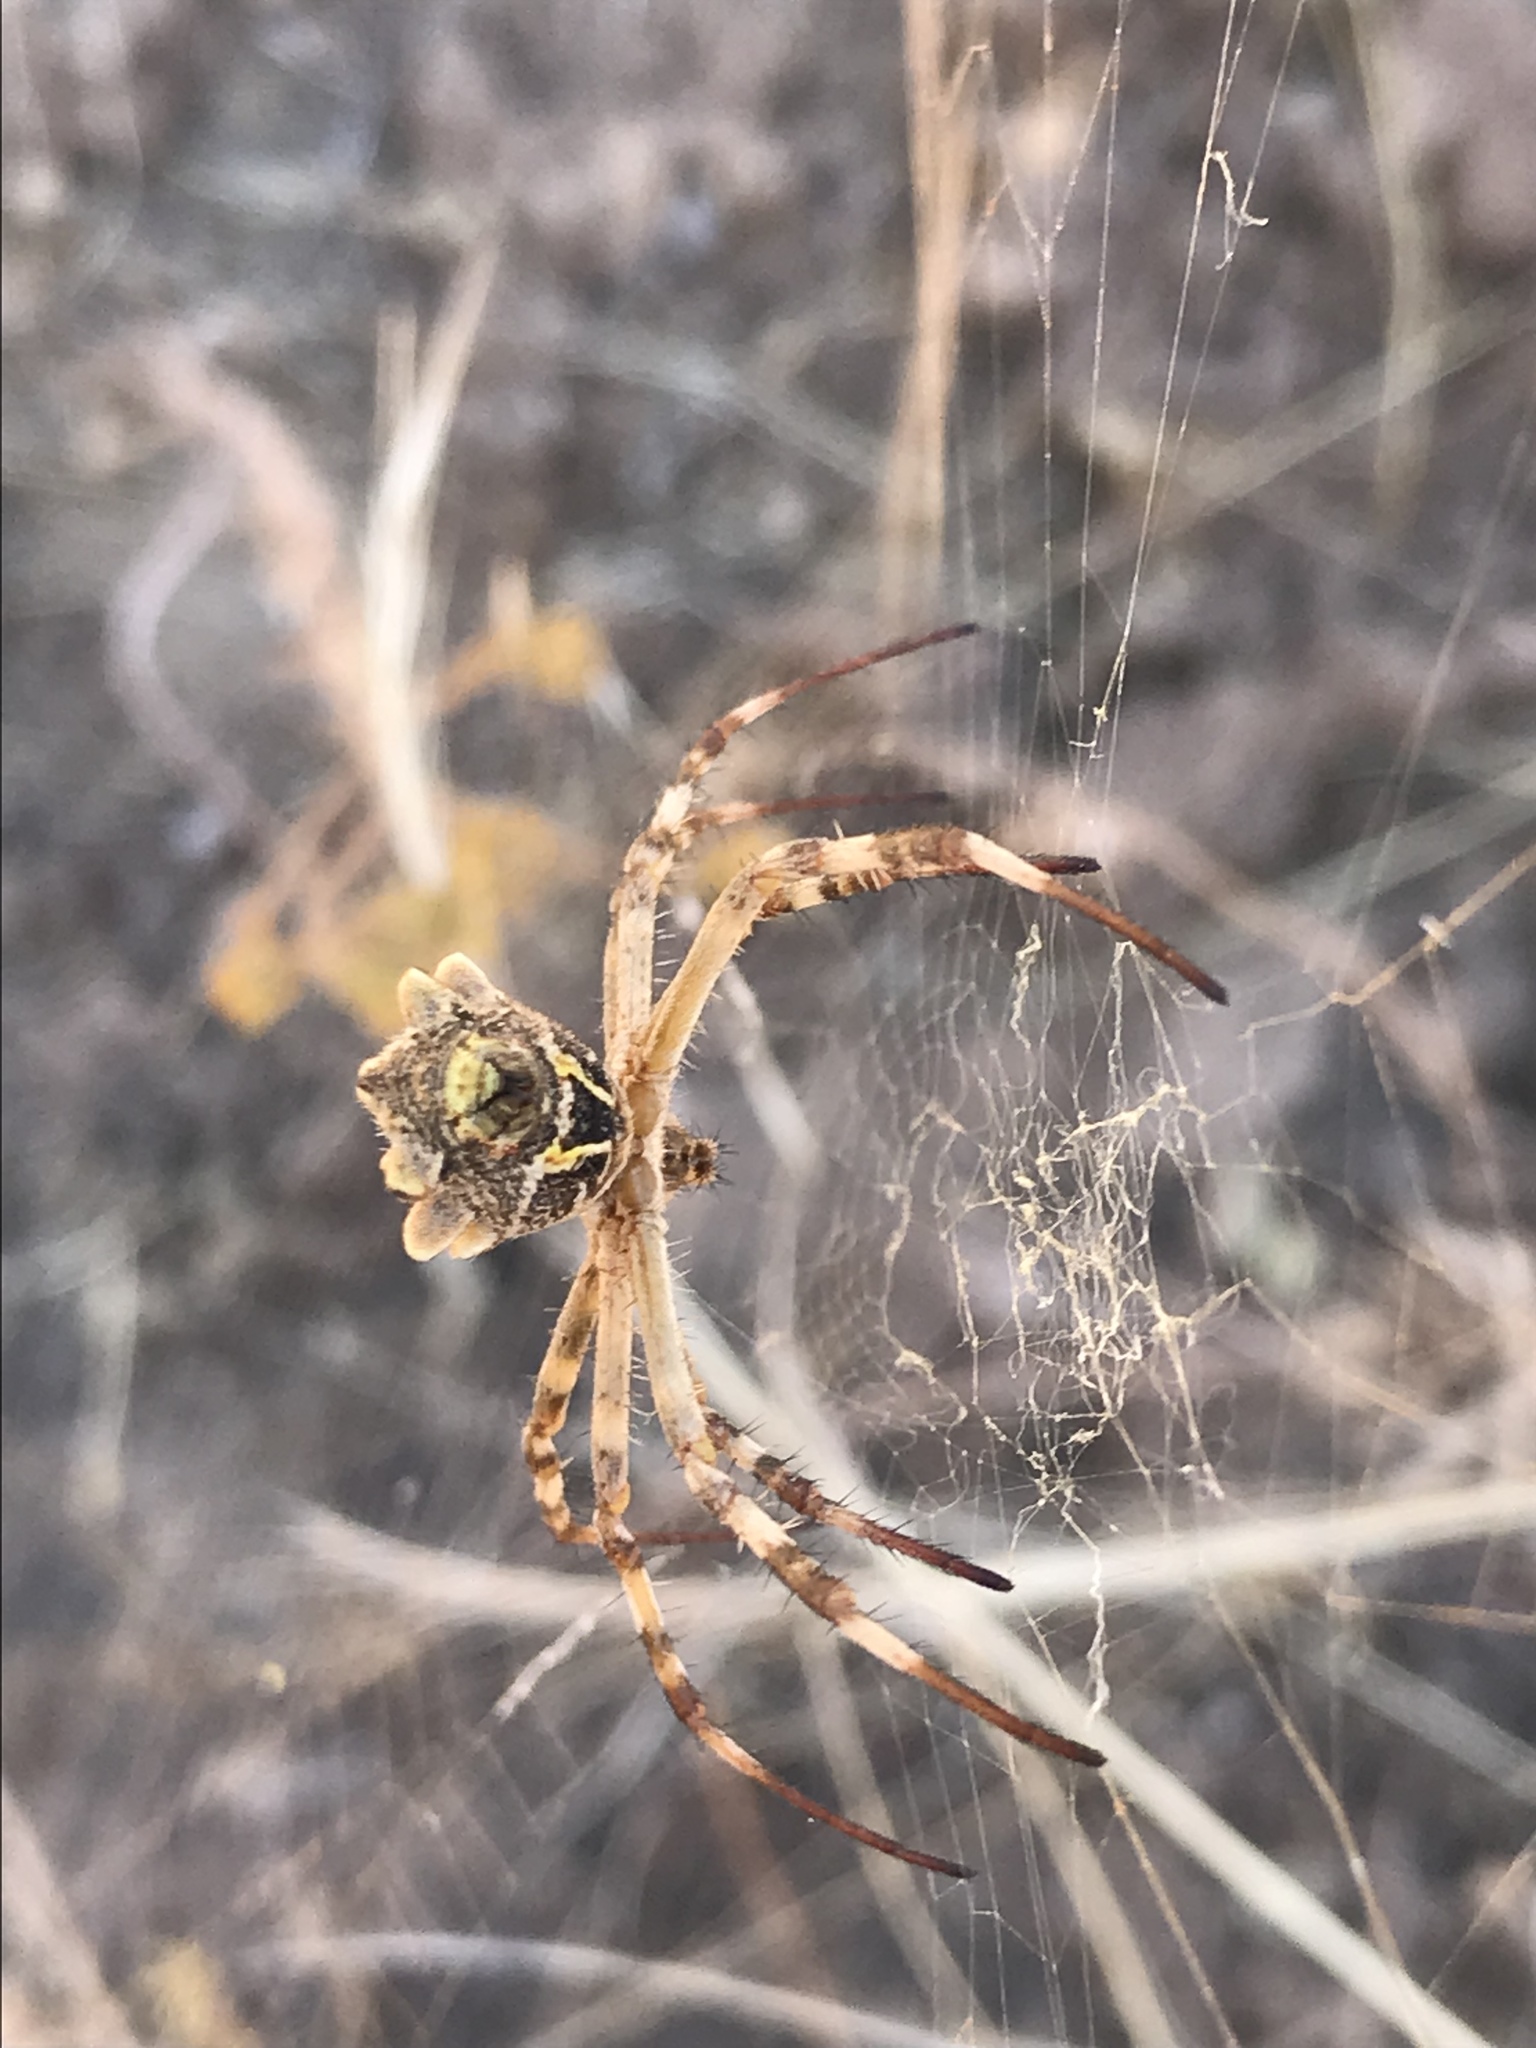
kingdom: Animalia
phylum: Arthropoda
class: Arachnida
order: Araneae
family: Araneidae
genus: Argiope
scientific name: Argiope argentata
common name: Orb weavers
